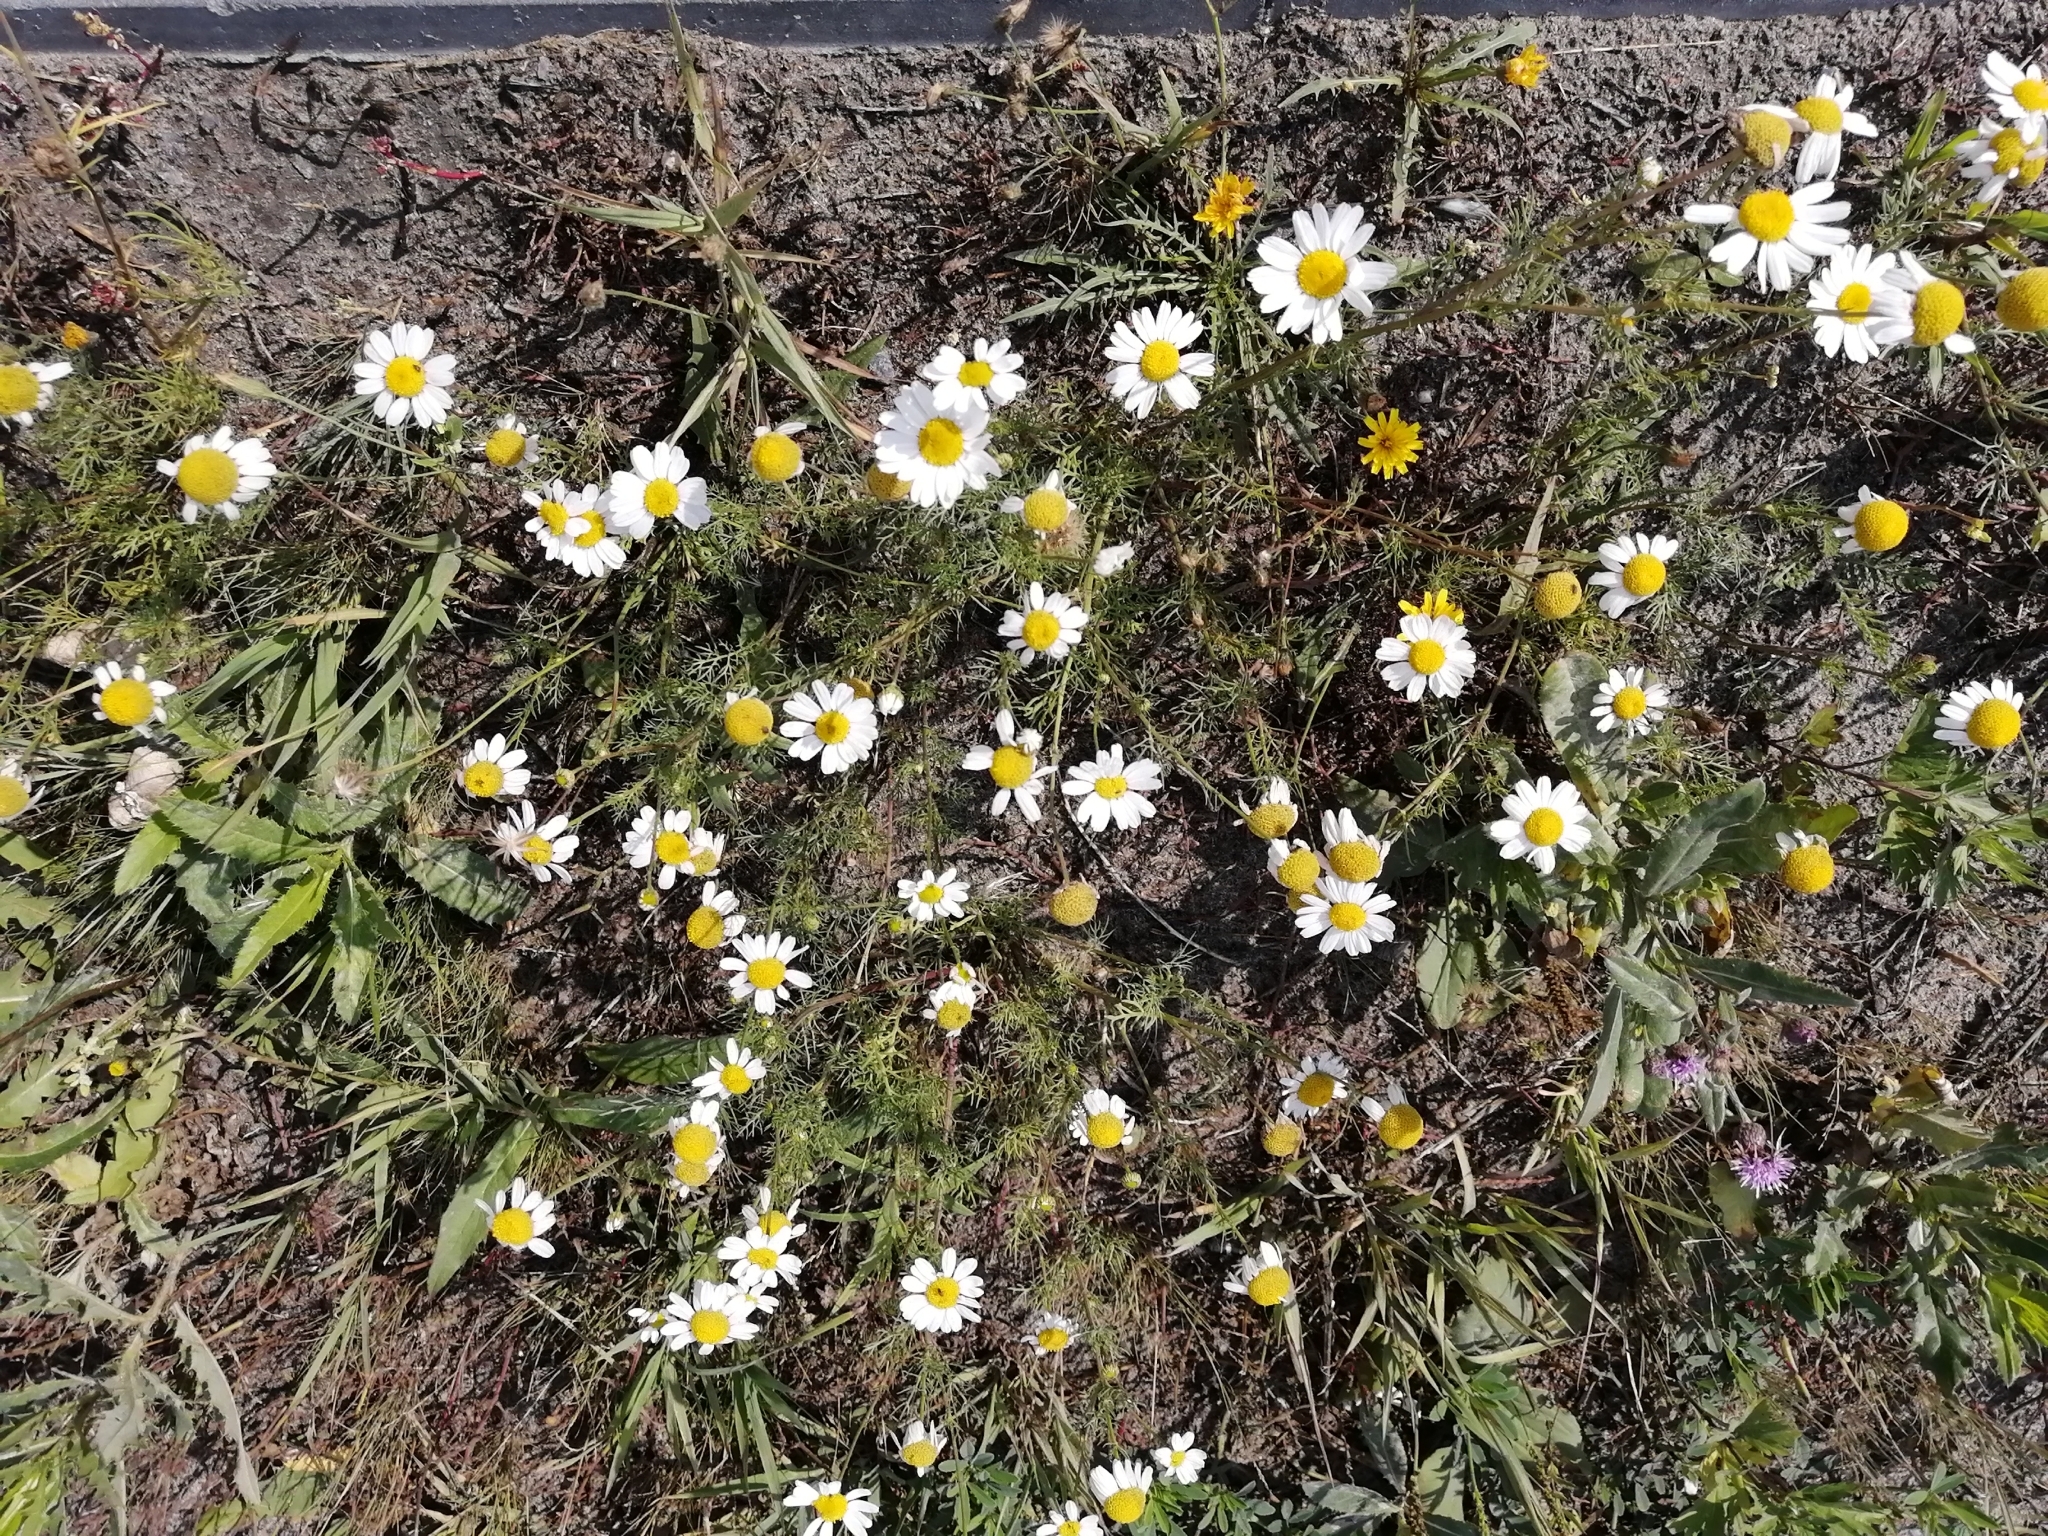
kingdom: Plantae
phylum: Tracheophyta
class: Magnoliopsida
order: Asterales
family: Asteraceae
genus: Tripleurospermum
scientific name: Tripleurospermum inodorum
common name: Scentless mayweed
